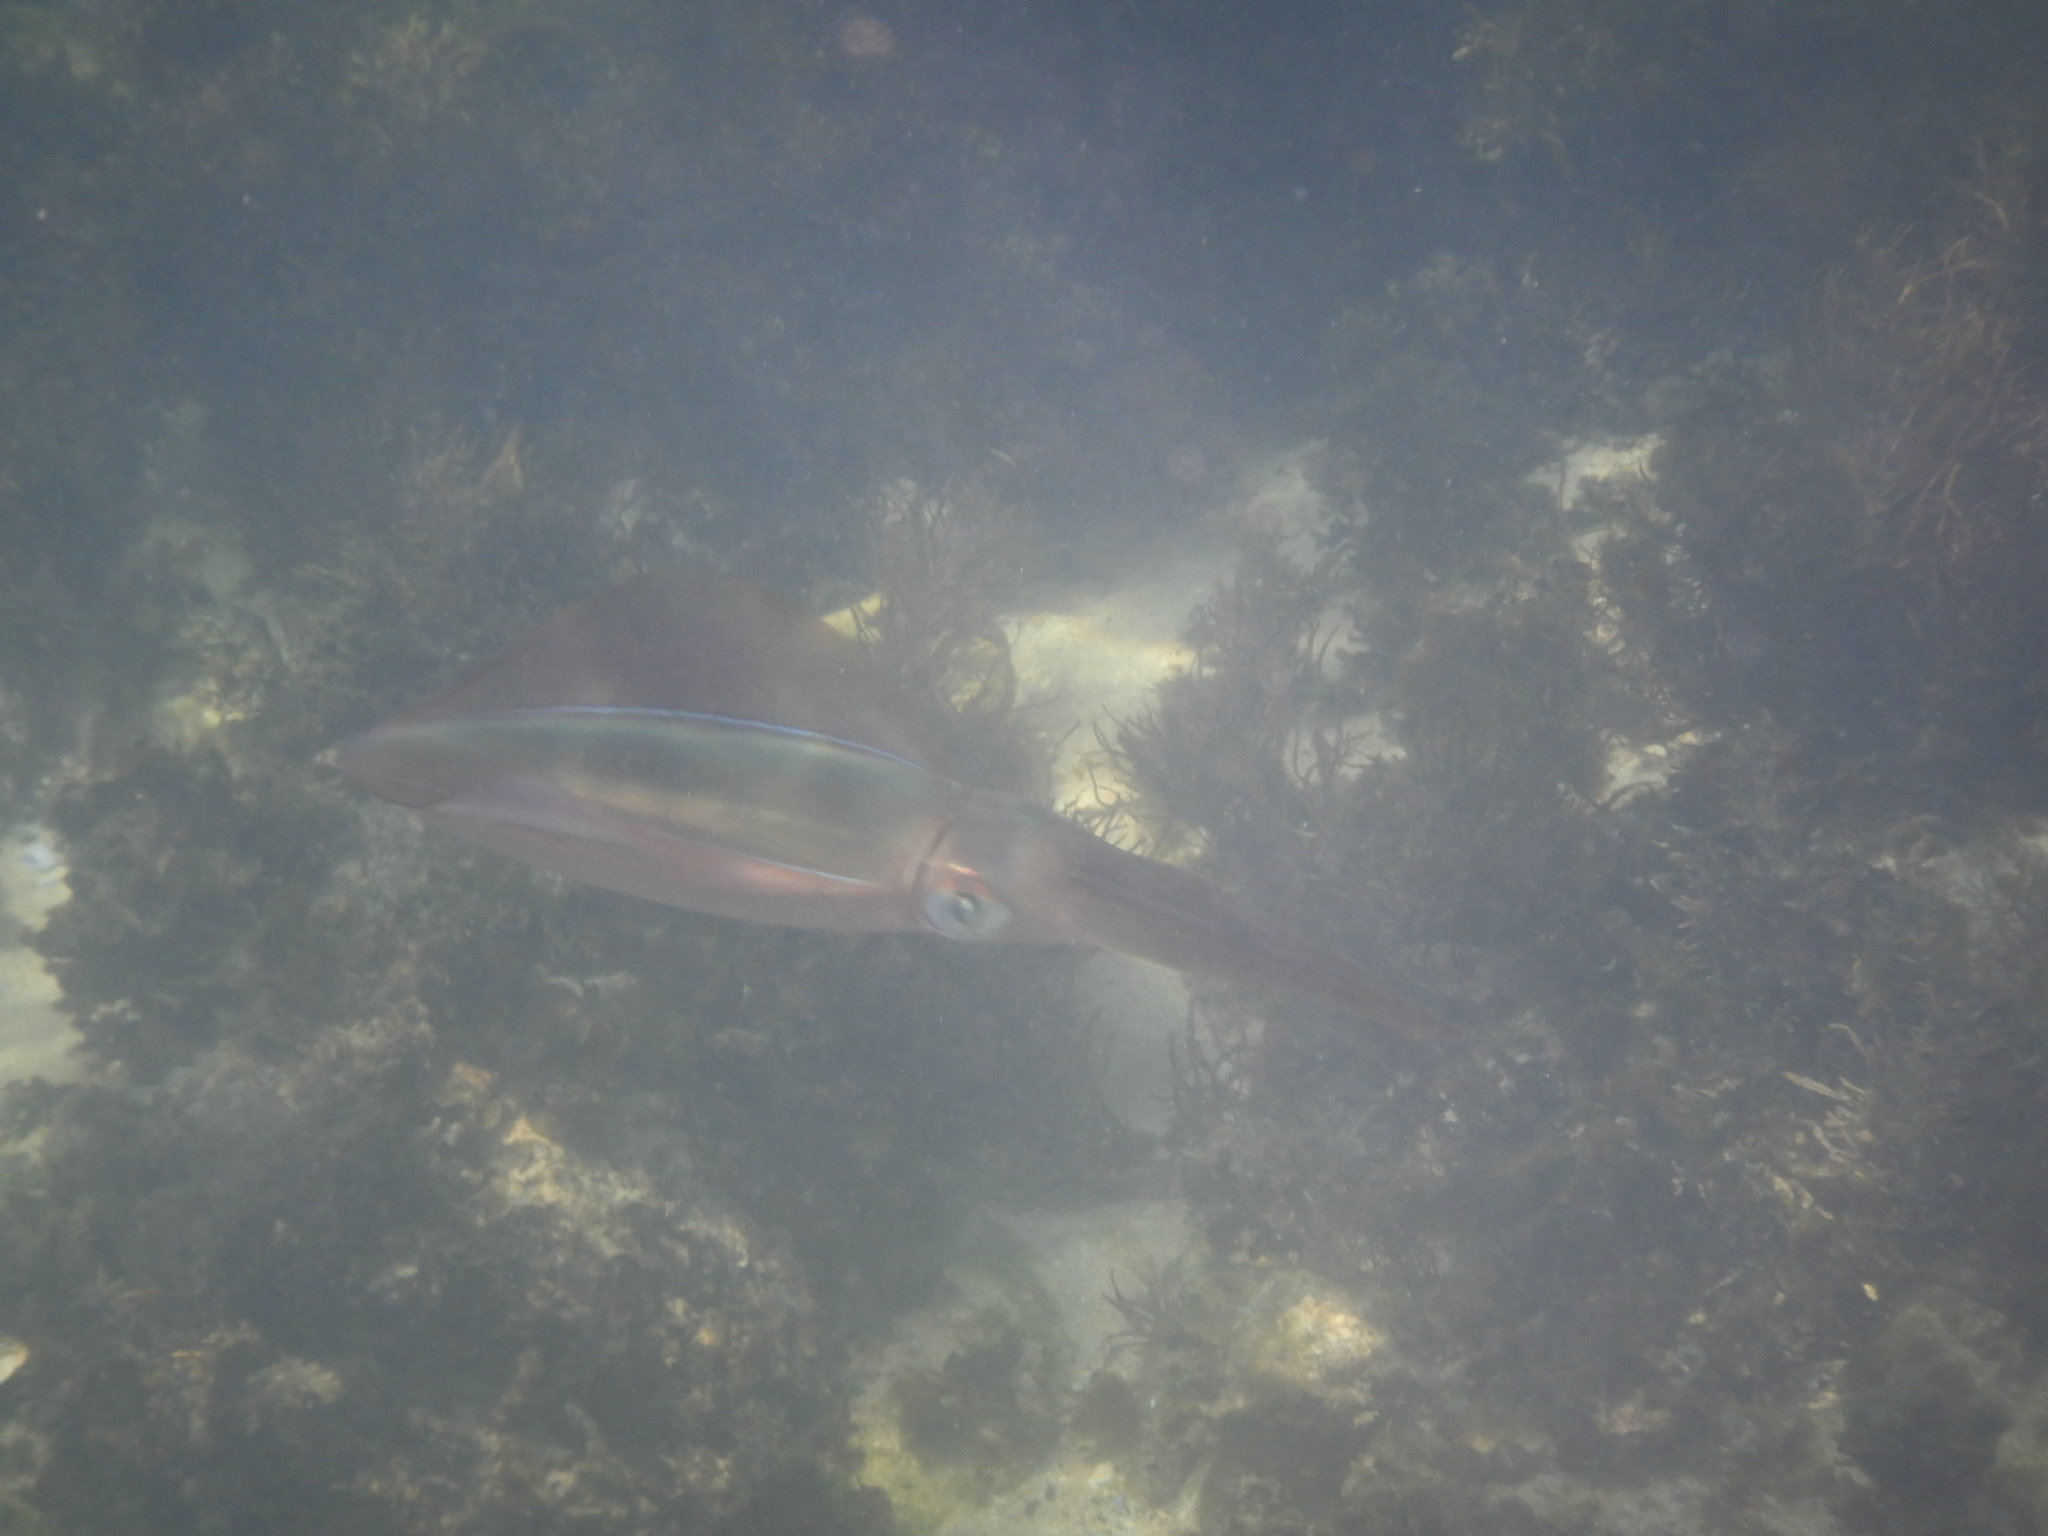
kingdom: Animalia
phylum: Mollusca
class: Cephalopoda
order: Myopsida
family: Loliginidae
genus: Sepioteuthis
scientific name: Sepioteuthis australis
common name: Southern reef squid
